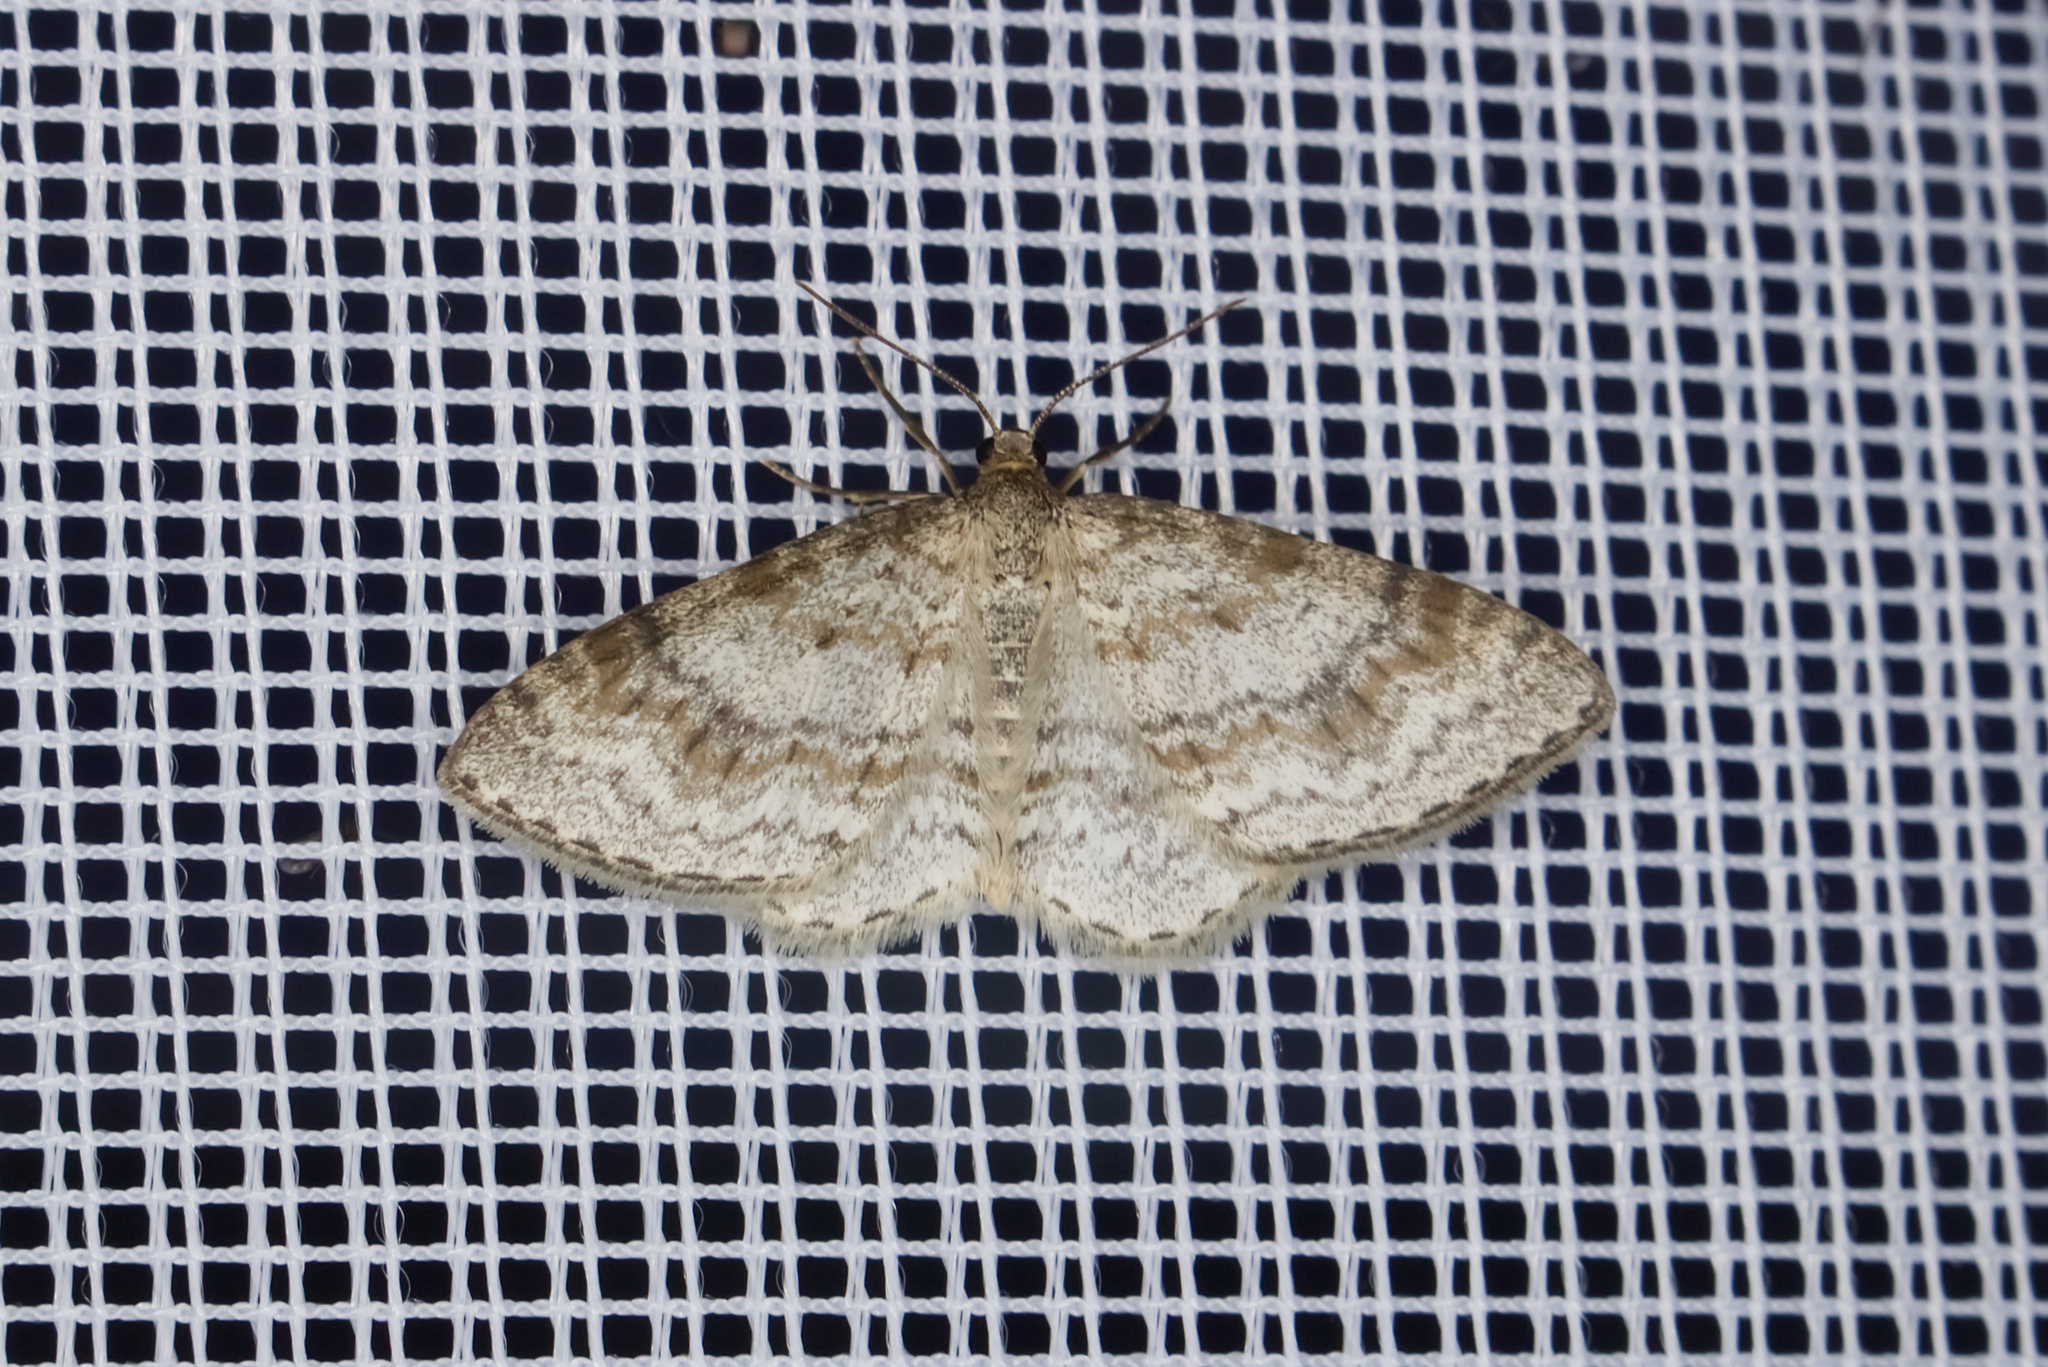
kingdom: Animalia
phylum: Arthropoda
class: Insecta
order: Lepidoptera
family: Geometridae
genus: Hydrelia
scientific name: Hydrelia sylvata
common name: Waved carpet
